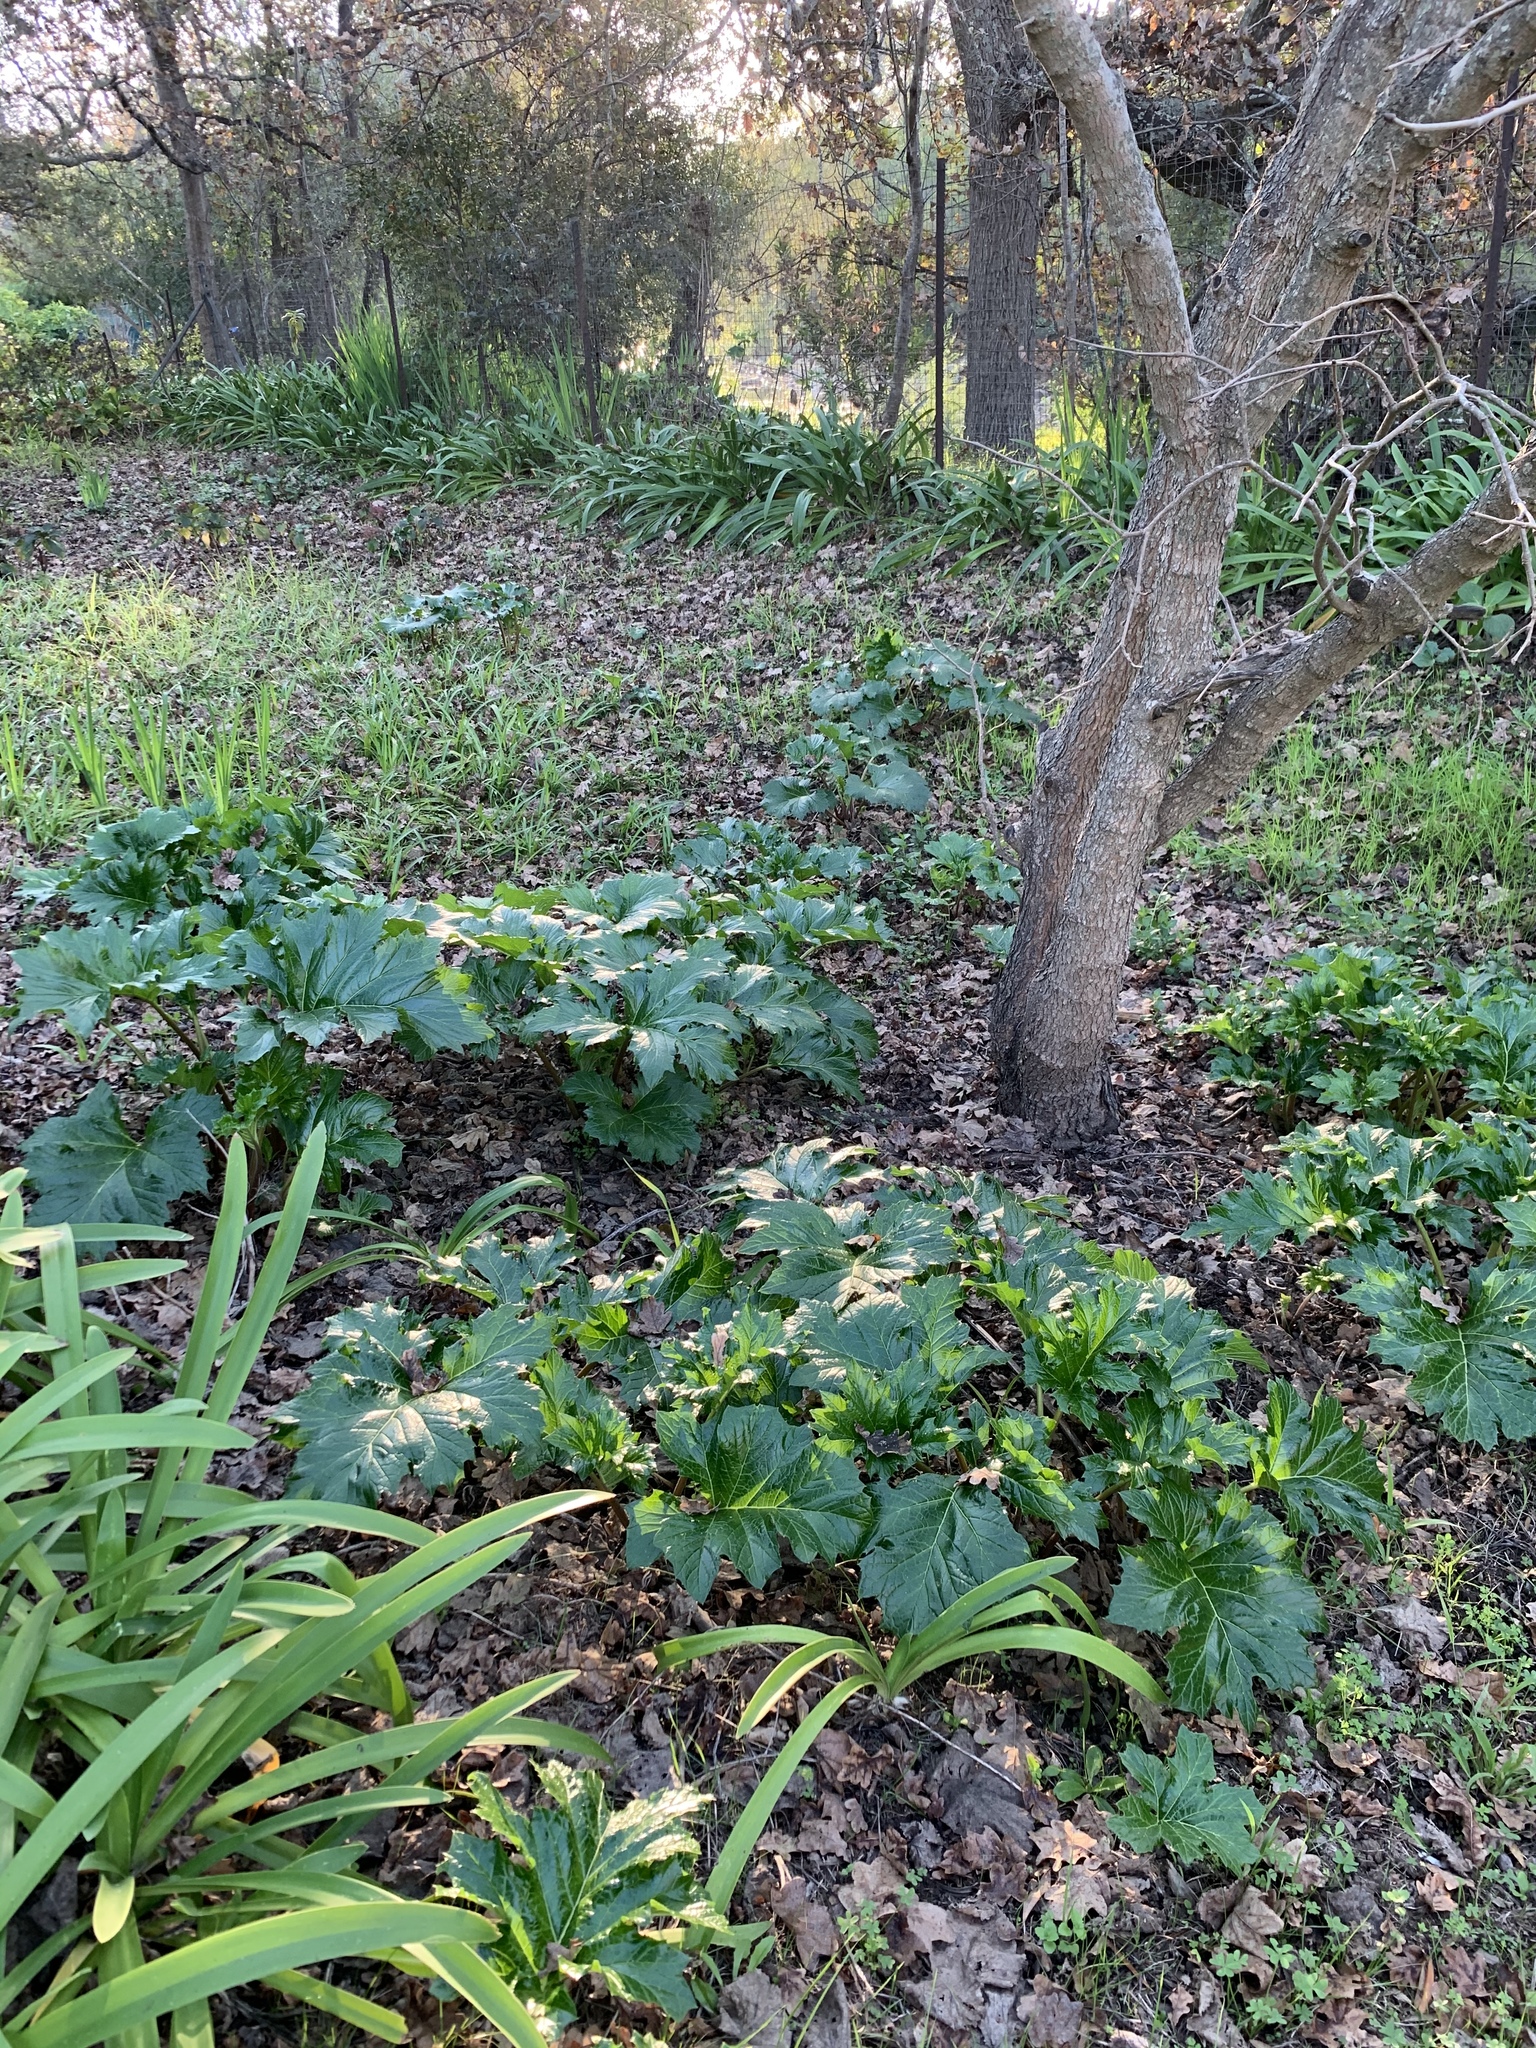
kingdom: Plantae
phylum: Tracheophyta
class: Magnoliopsida
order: Lamiales
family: Acanthaceae
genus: Acanthus
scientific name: Acanthus mollis
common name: Bear's-breech
